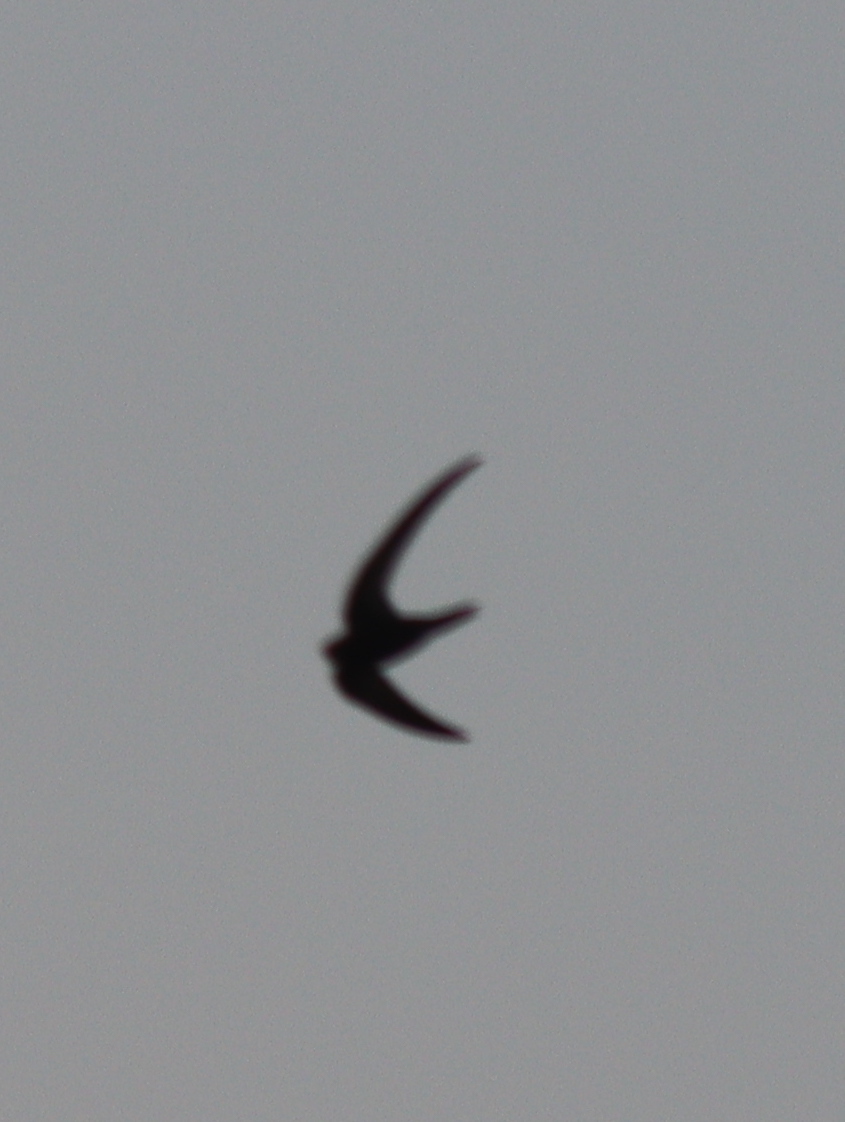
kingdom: Animalia
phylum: Chordata
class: Aves
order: Apodiformes
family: Apodidae
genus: Apus
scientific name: Apus apus
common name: Common swift
